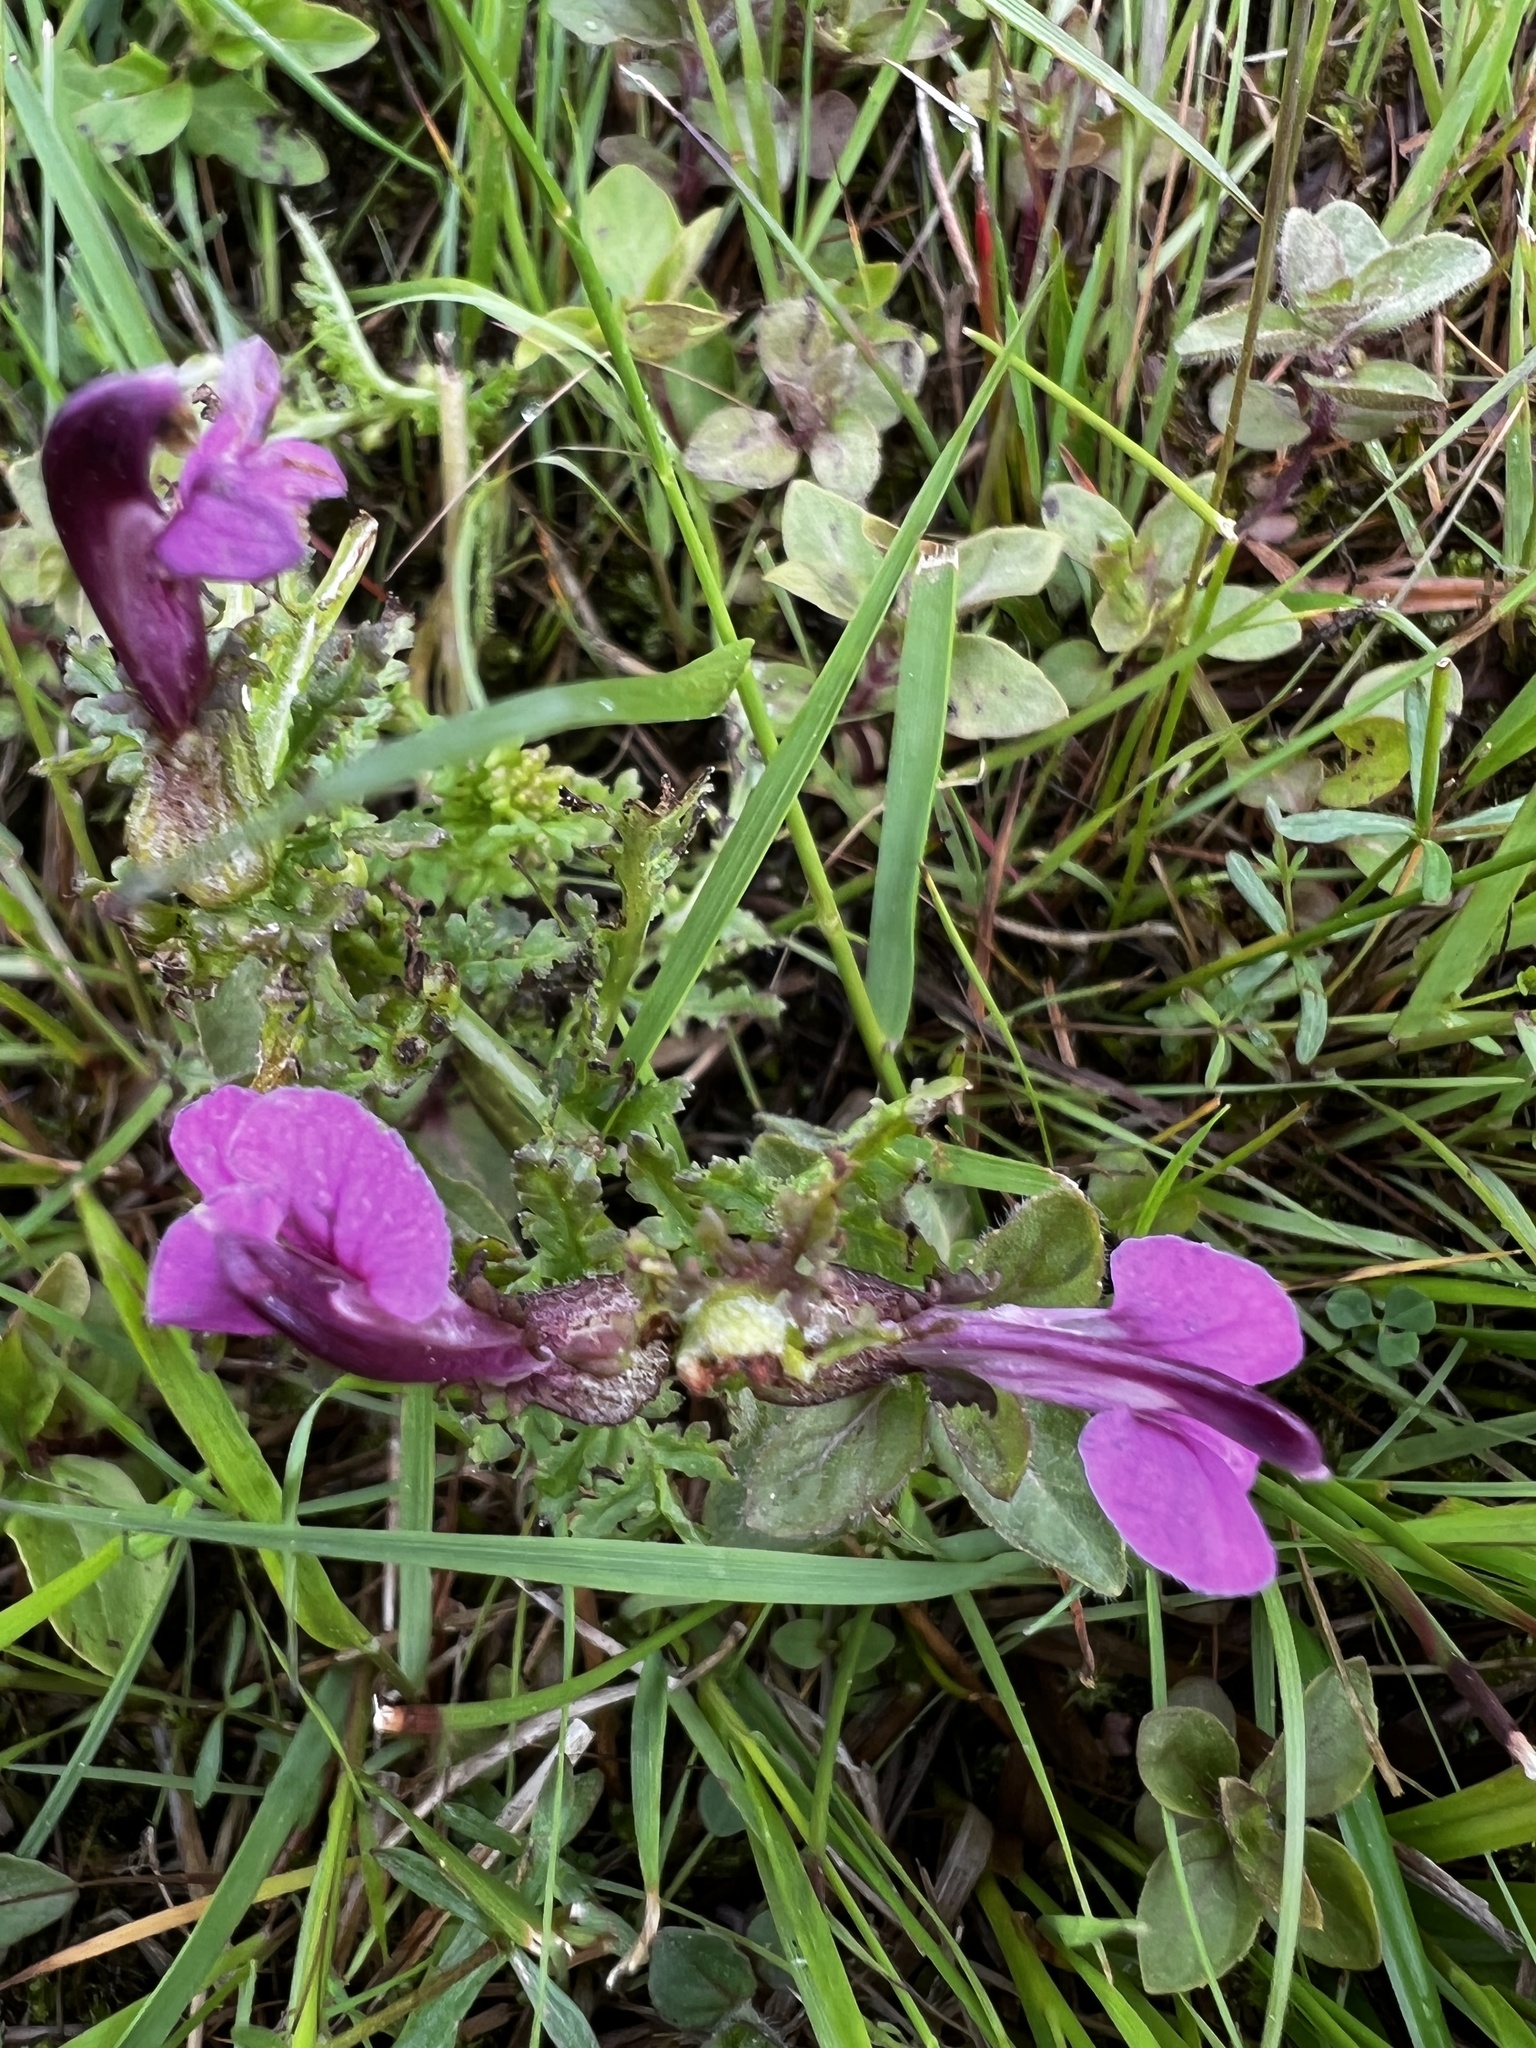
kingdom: Plantae
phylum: Tracheophyta
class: Magnoliopsida
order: Lamiales
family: Orobanchaceae
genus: Pedicularis
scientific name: Pedicularis sylvatica
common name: Lousewort
